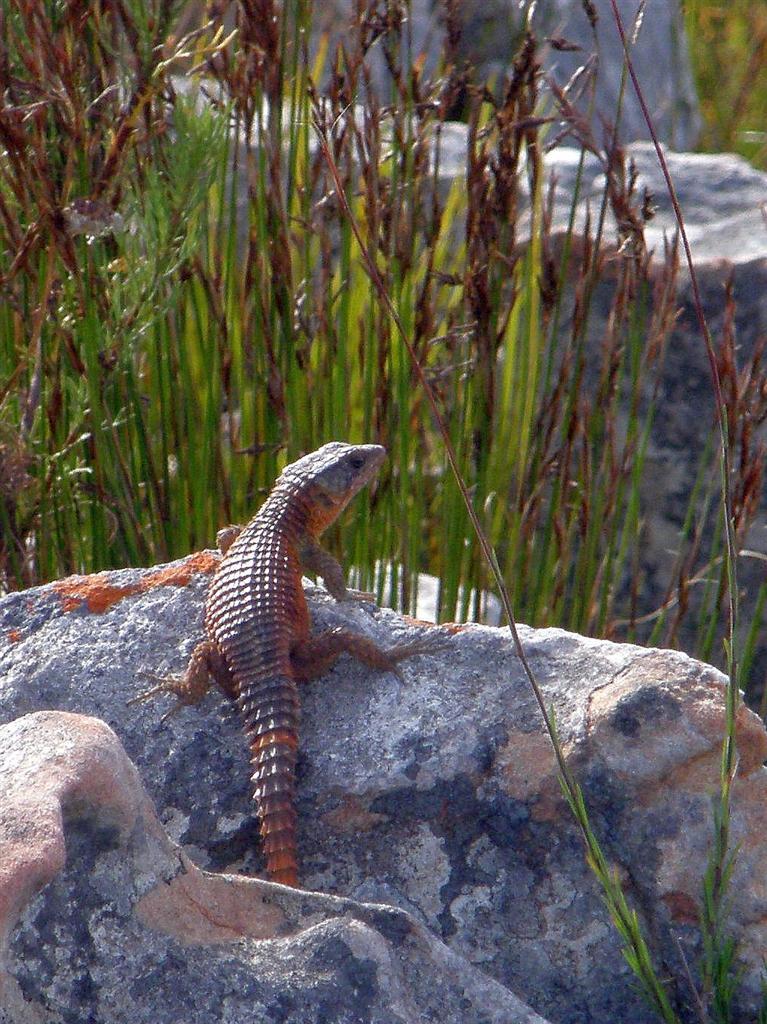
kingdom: Animalia
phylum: Chordata
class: Squamata
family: Cordylidae
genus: Cordylus
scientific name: Cordylus cordylus
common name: Cape girdled lizard
